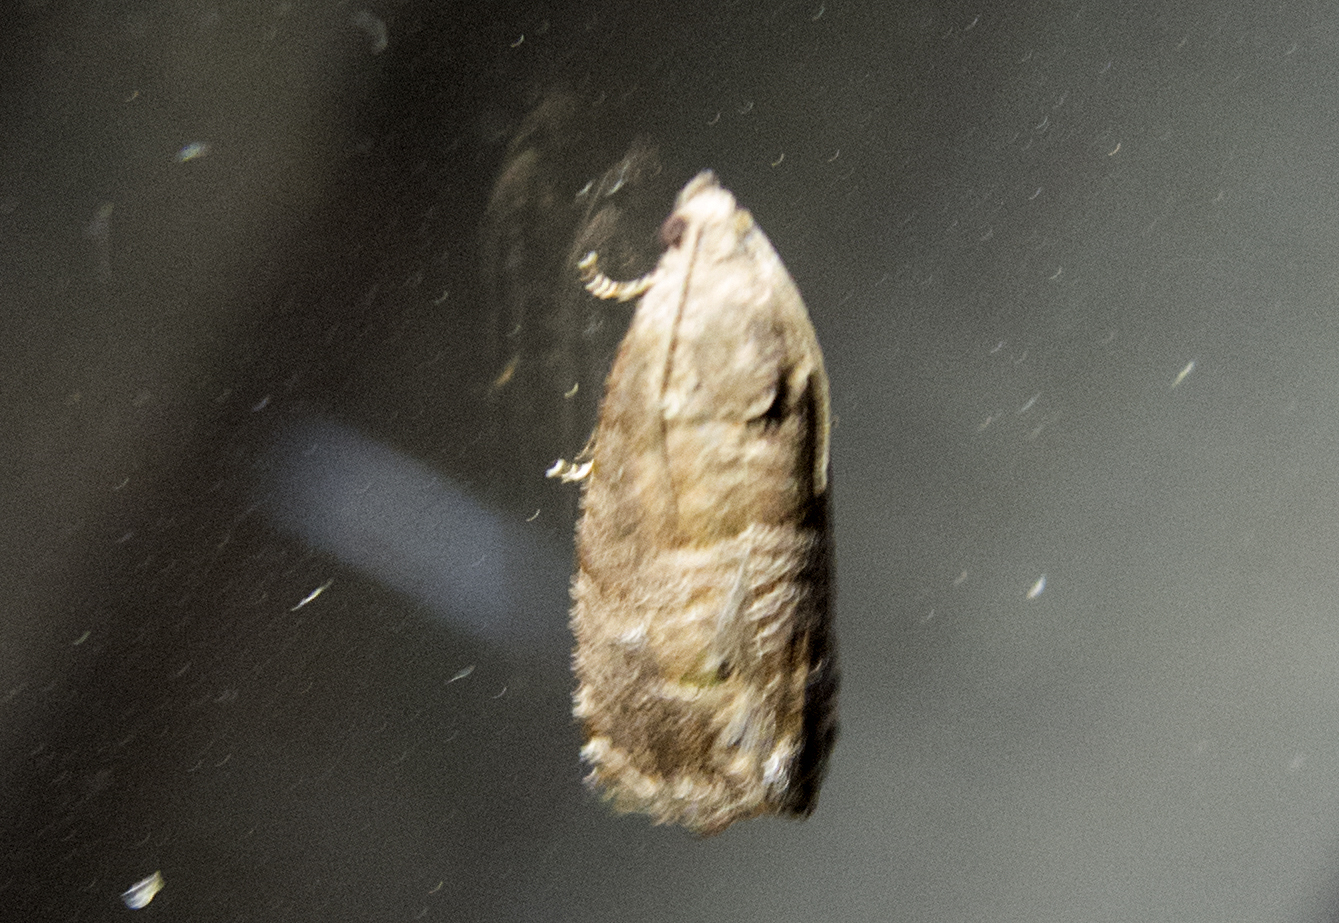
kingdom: Animalia
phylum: Arthropoda
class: Insecta
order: Lepidoptera
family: Tortricidae
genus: Cydia
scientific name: Cydia pyrivora
